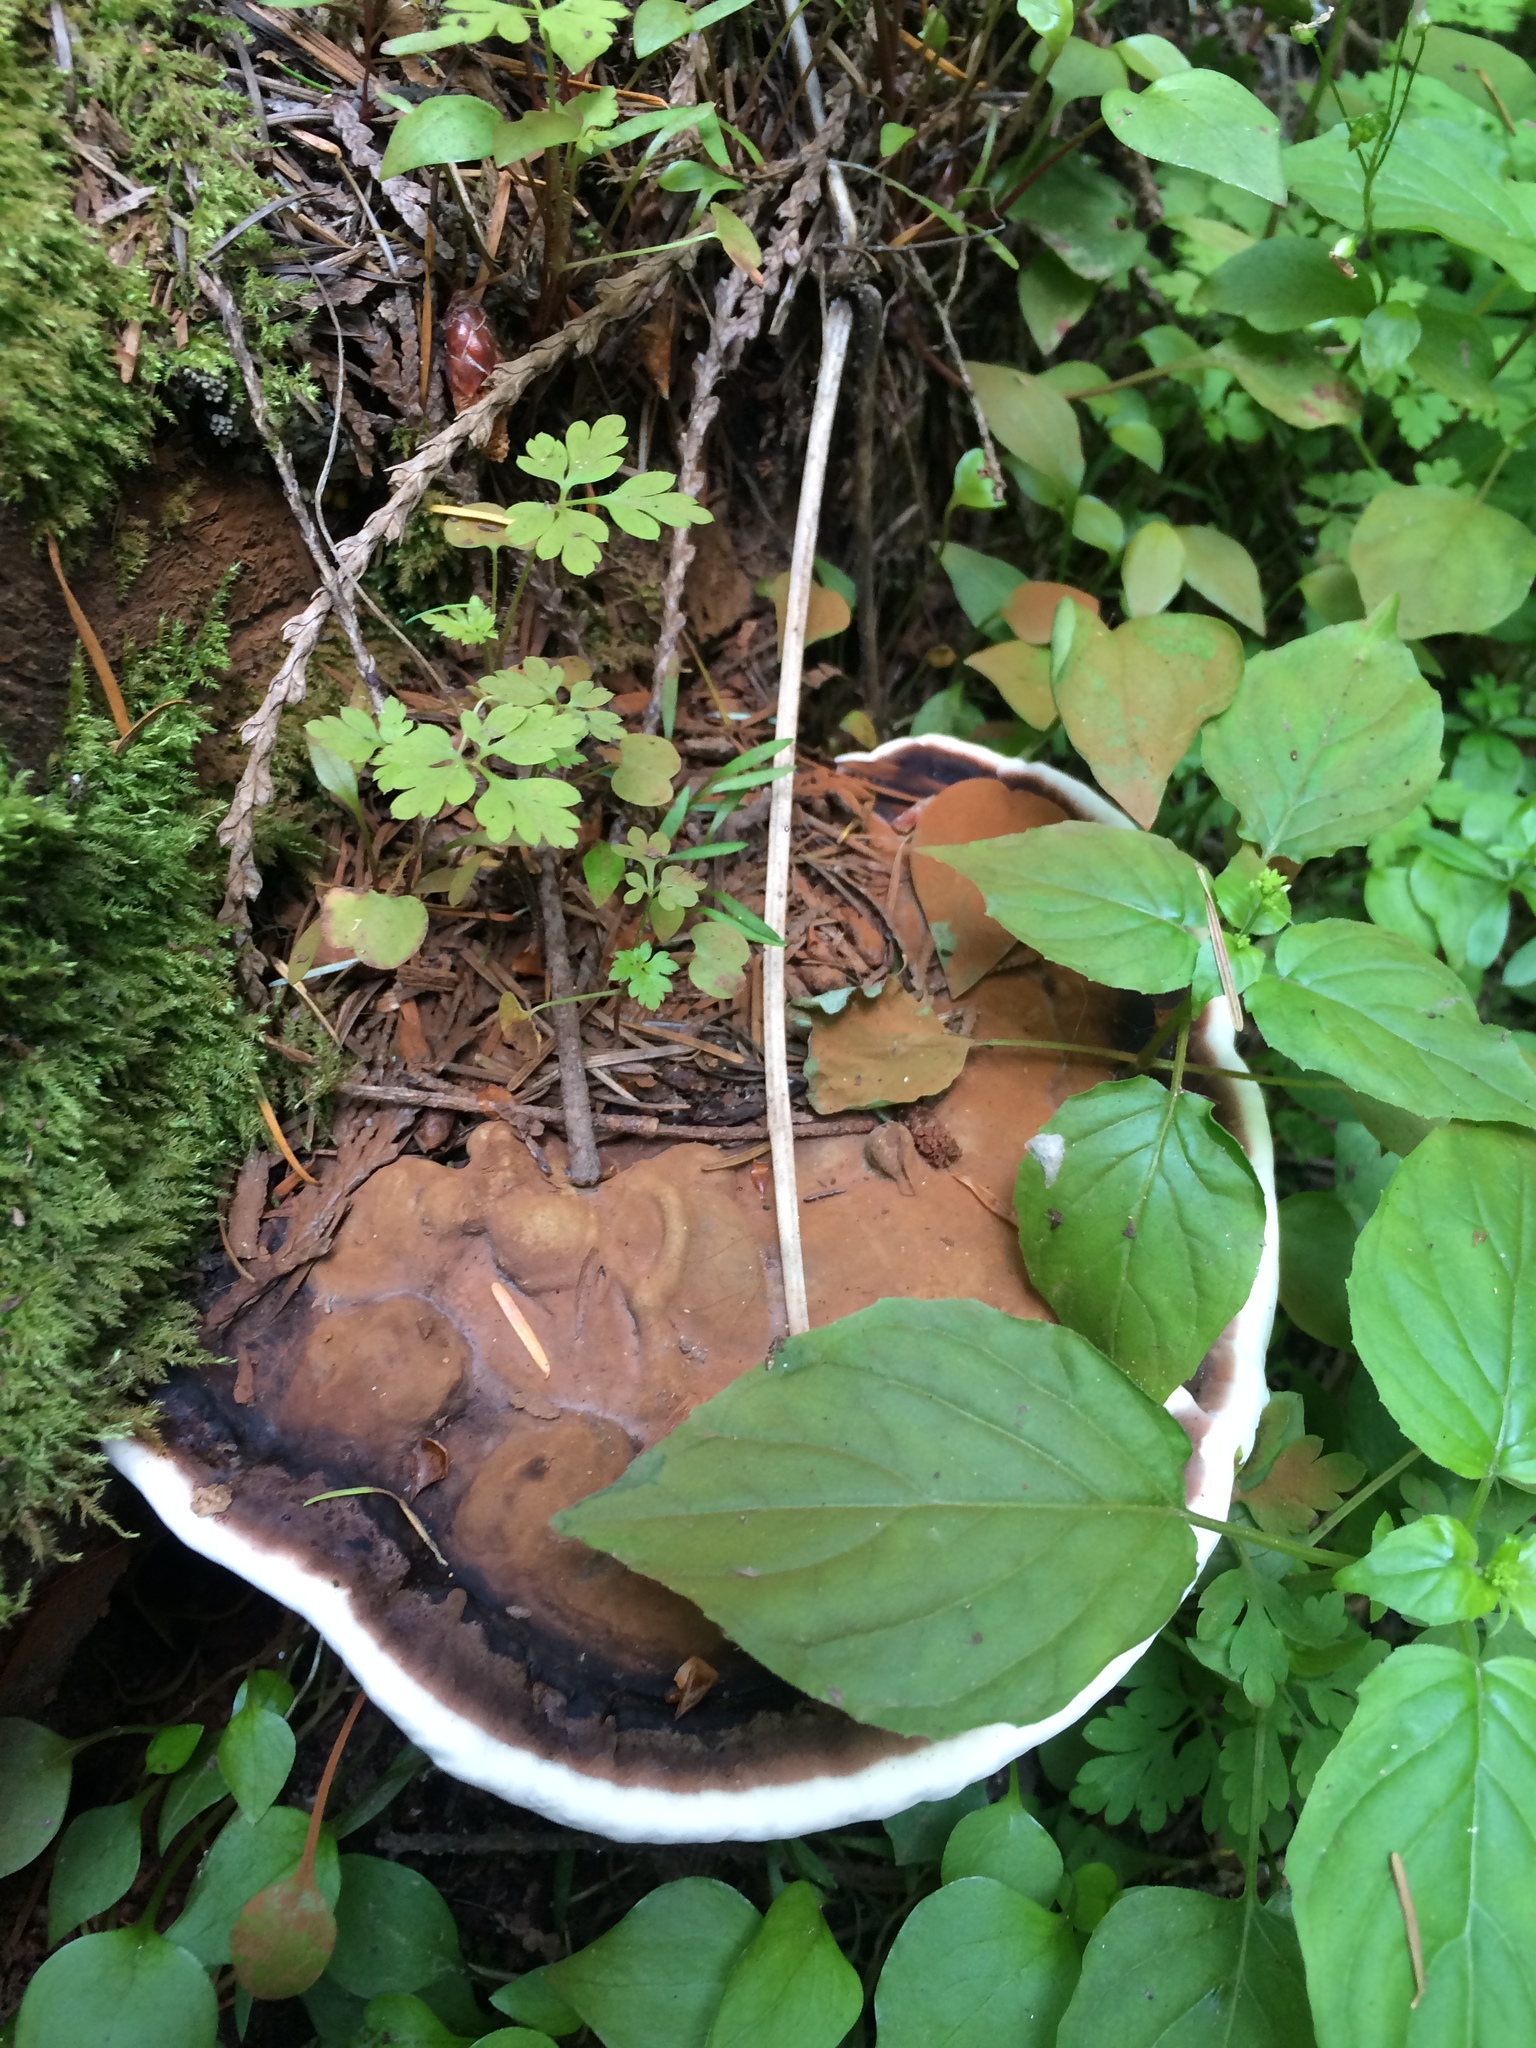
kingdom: Fungi
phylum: Basidiomycota
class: Agaricomycetes
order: Polyporales
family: Polyporaceae
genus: Ganoderma
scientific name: Ganoderma applanatum
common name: Artist's bracket
